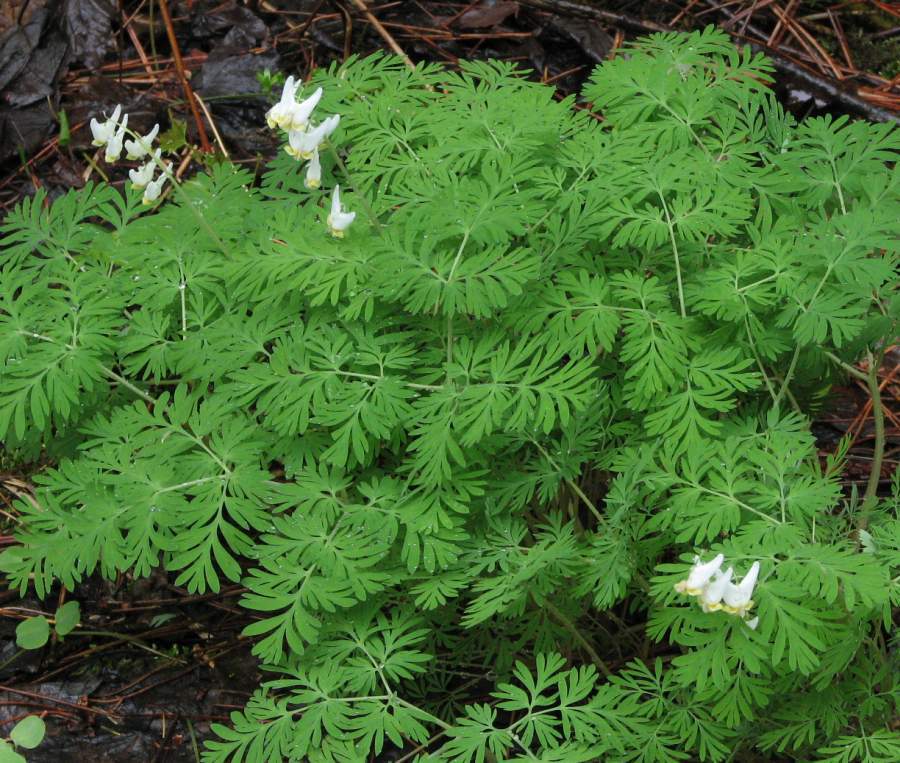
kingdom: Plantae
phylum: Tracheophyta
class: Magnoliopsida
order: Ranunculales
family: Papaveraceae
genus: Dicentra
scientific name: Dicentra cucullaria
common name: Dutchman's breeches
